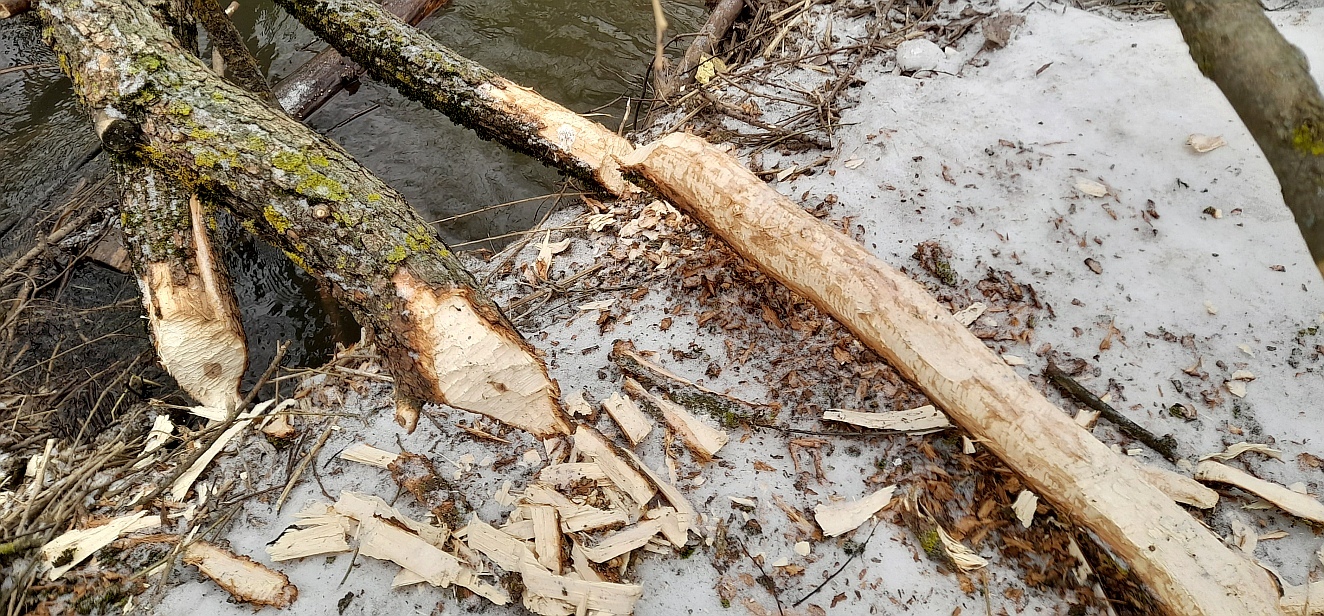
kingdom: Animalia
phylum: Chordata
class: Mammalia
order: Rodentia
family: Castoridae
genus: Castor
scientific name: Castor fiber
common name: Eurasian beaver
